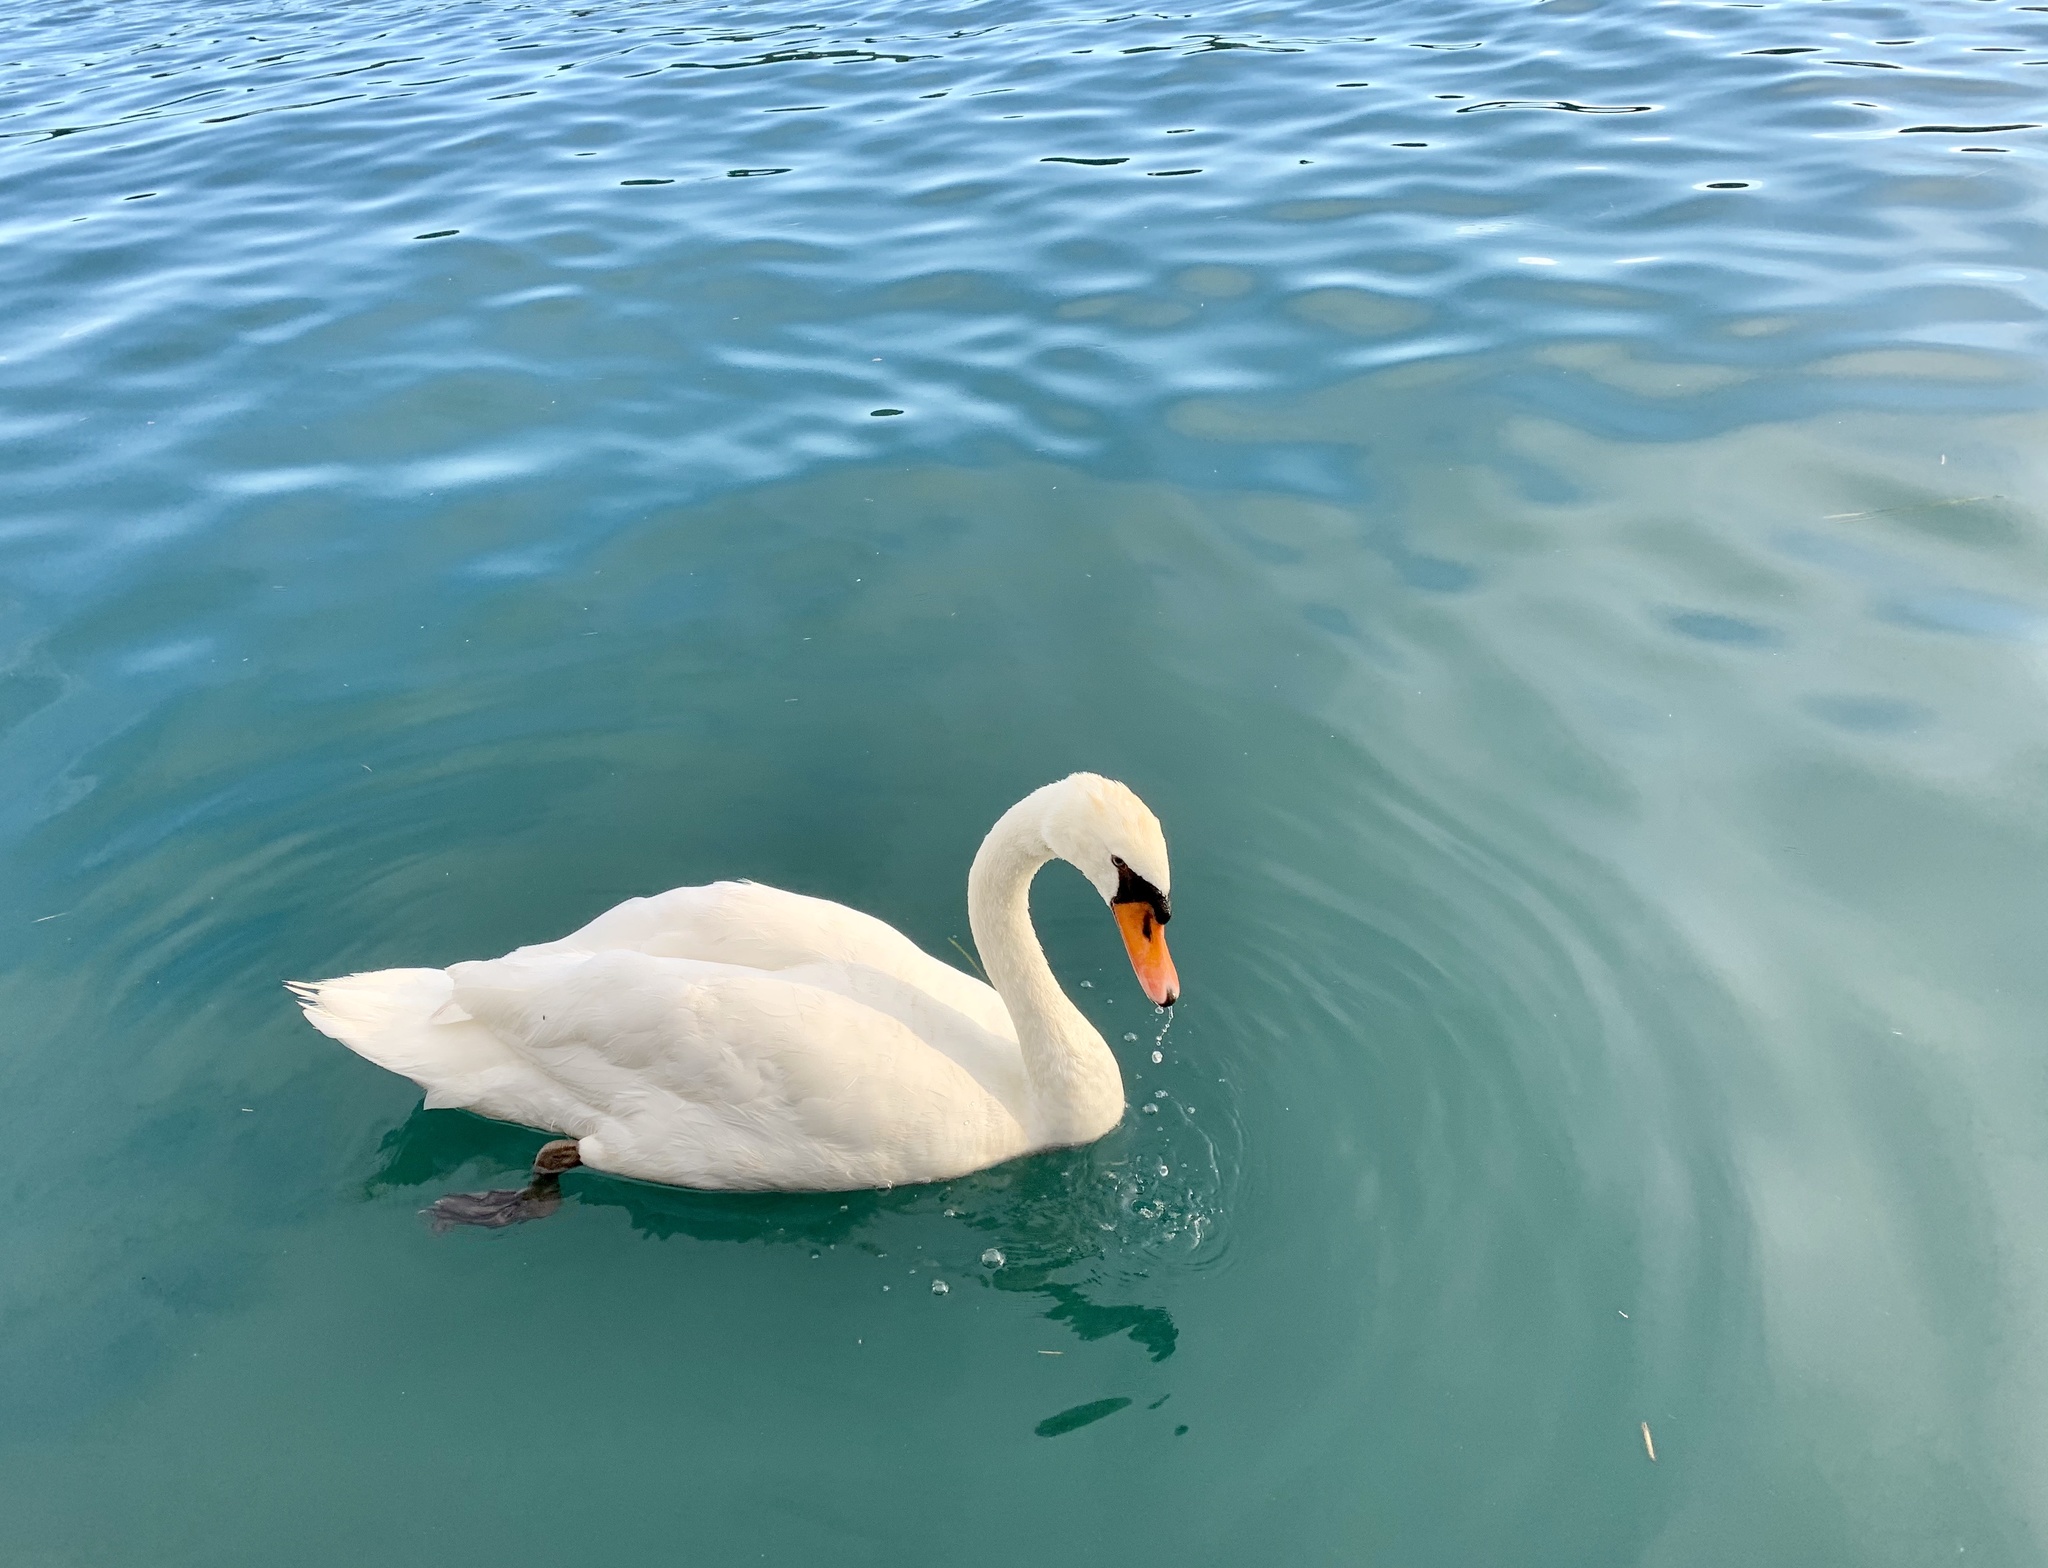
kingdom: Animalia
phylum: Chordata
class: Aves
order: Anseriformes
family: Anatidae
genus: Cygnus
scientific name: Cygnus olor
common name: Mute swan
